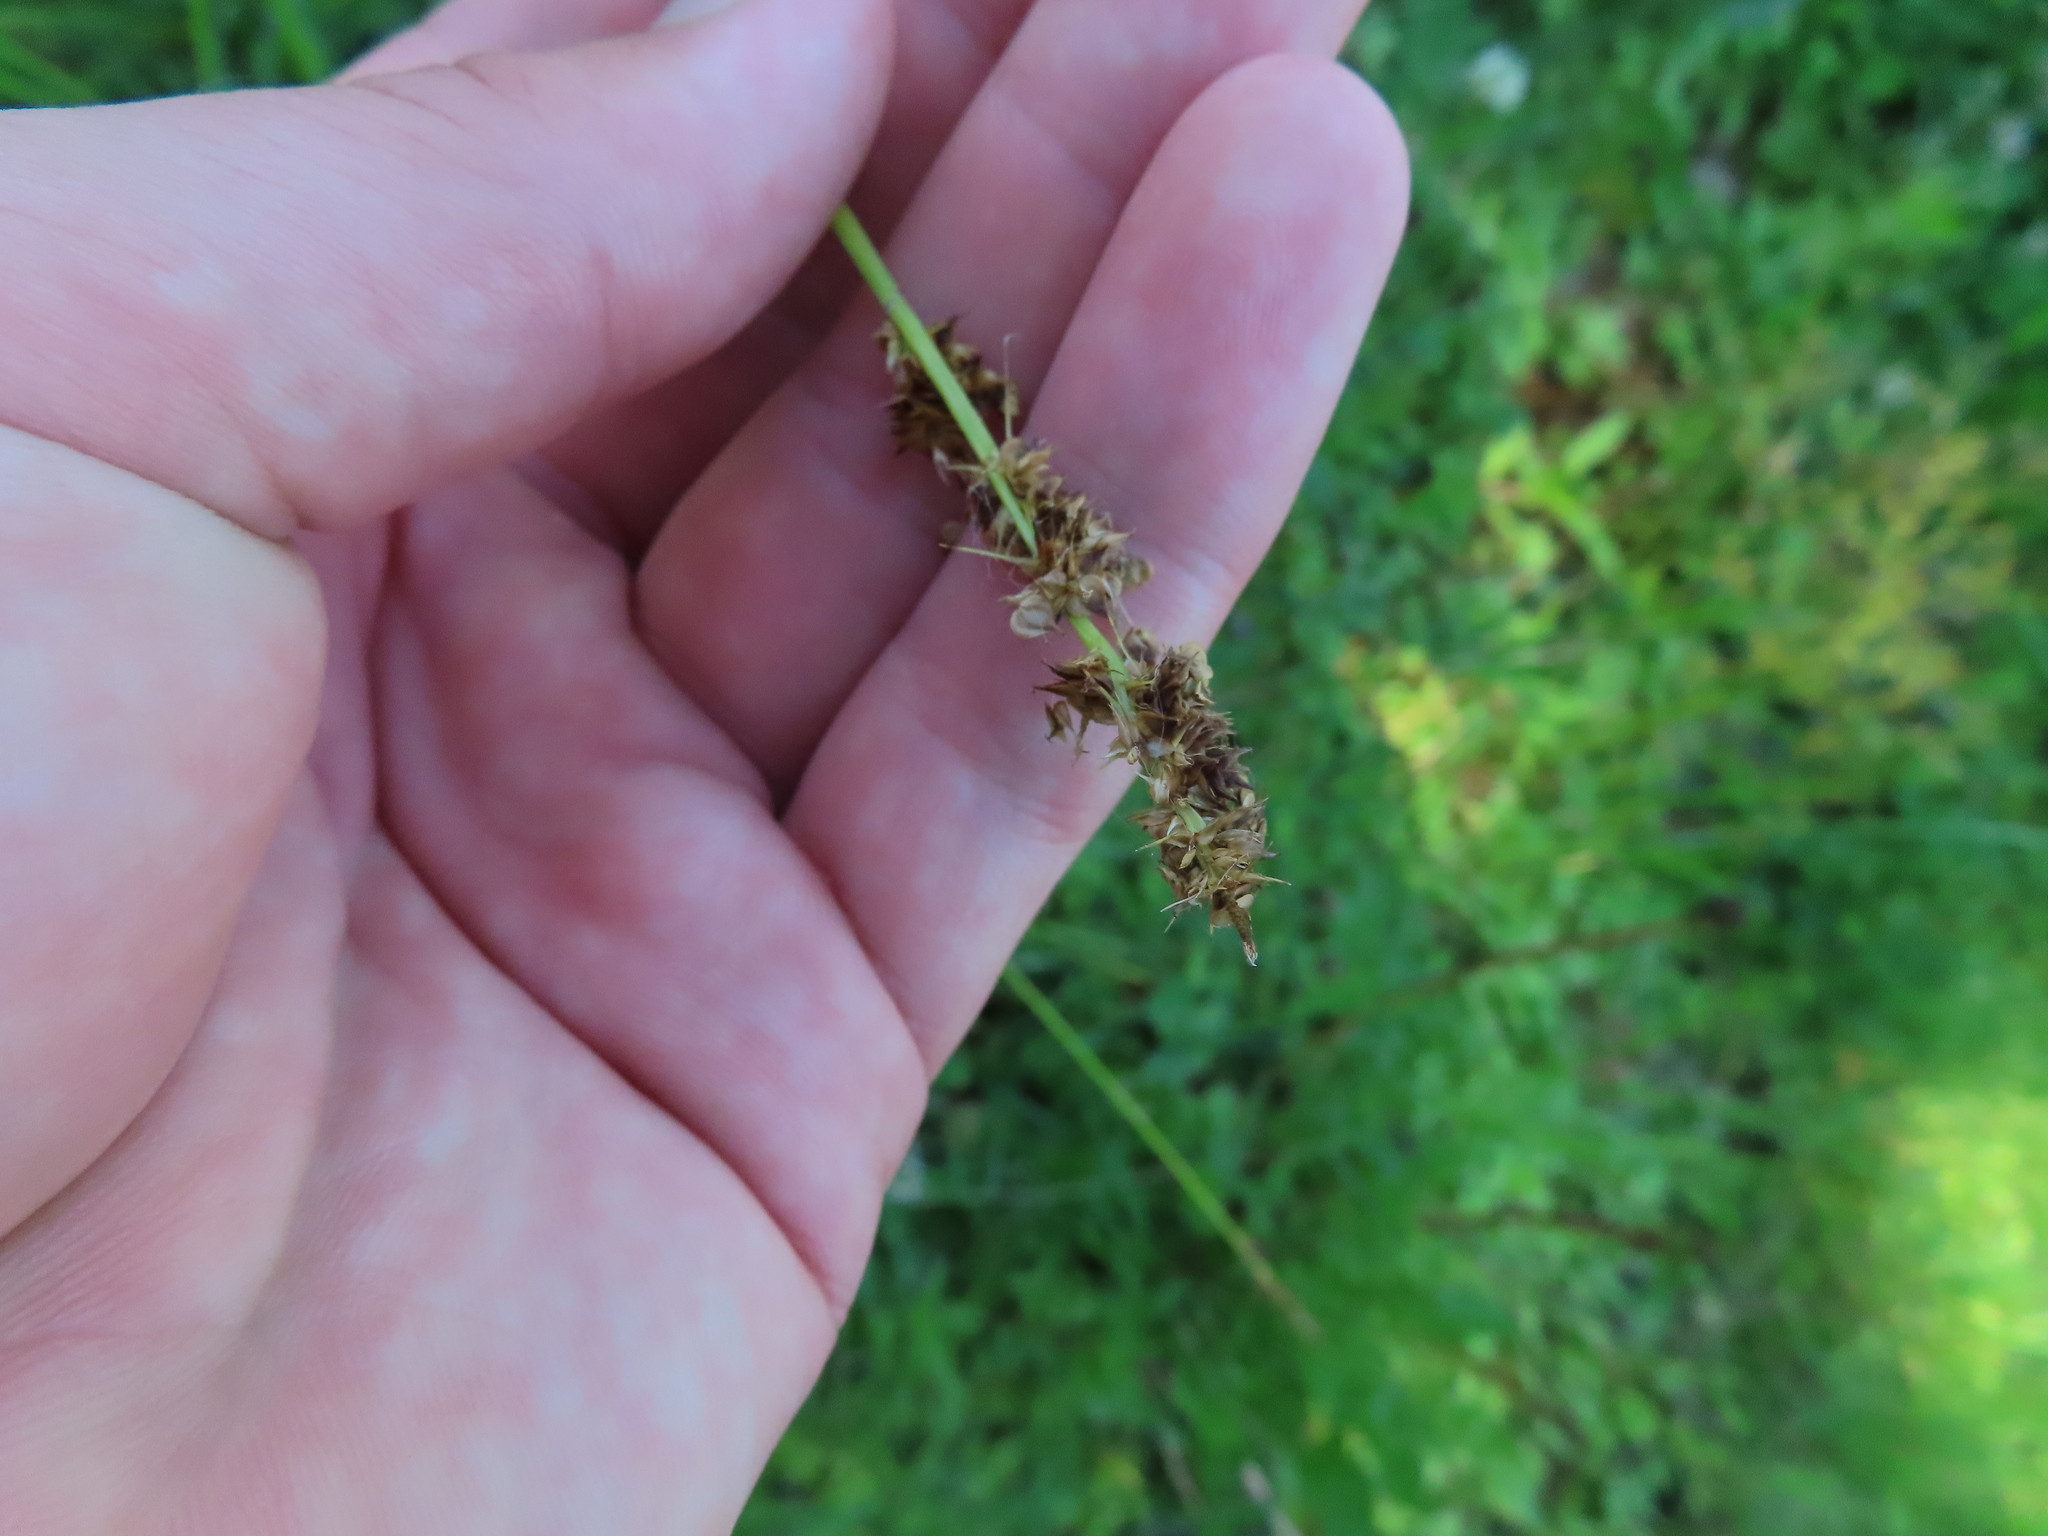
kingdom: Plantae
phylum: Tracheophyta
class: Liliopsida
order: Poales
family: Cyperaceae
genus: Carex
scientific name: Carex vulpinoidea
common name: American fox-sedge
